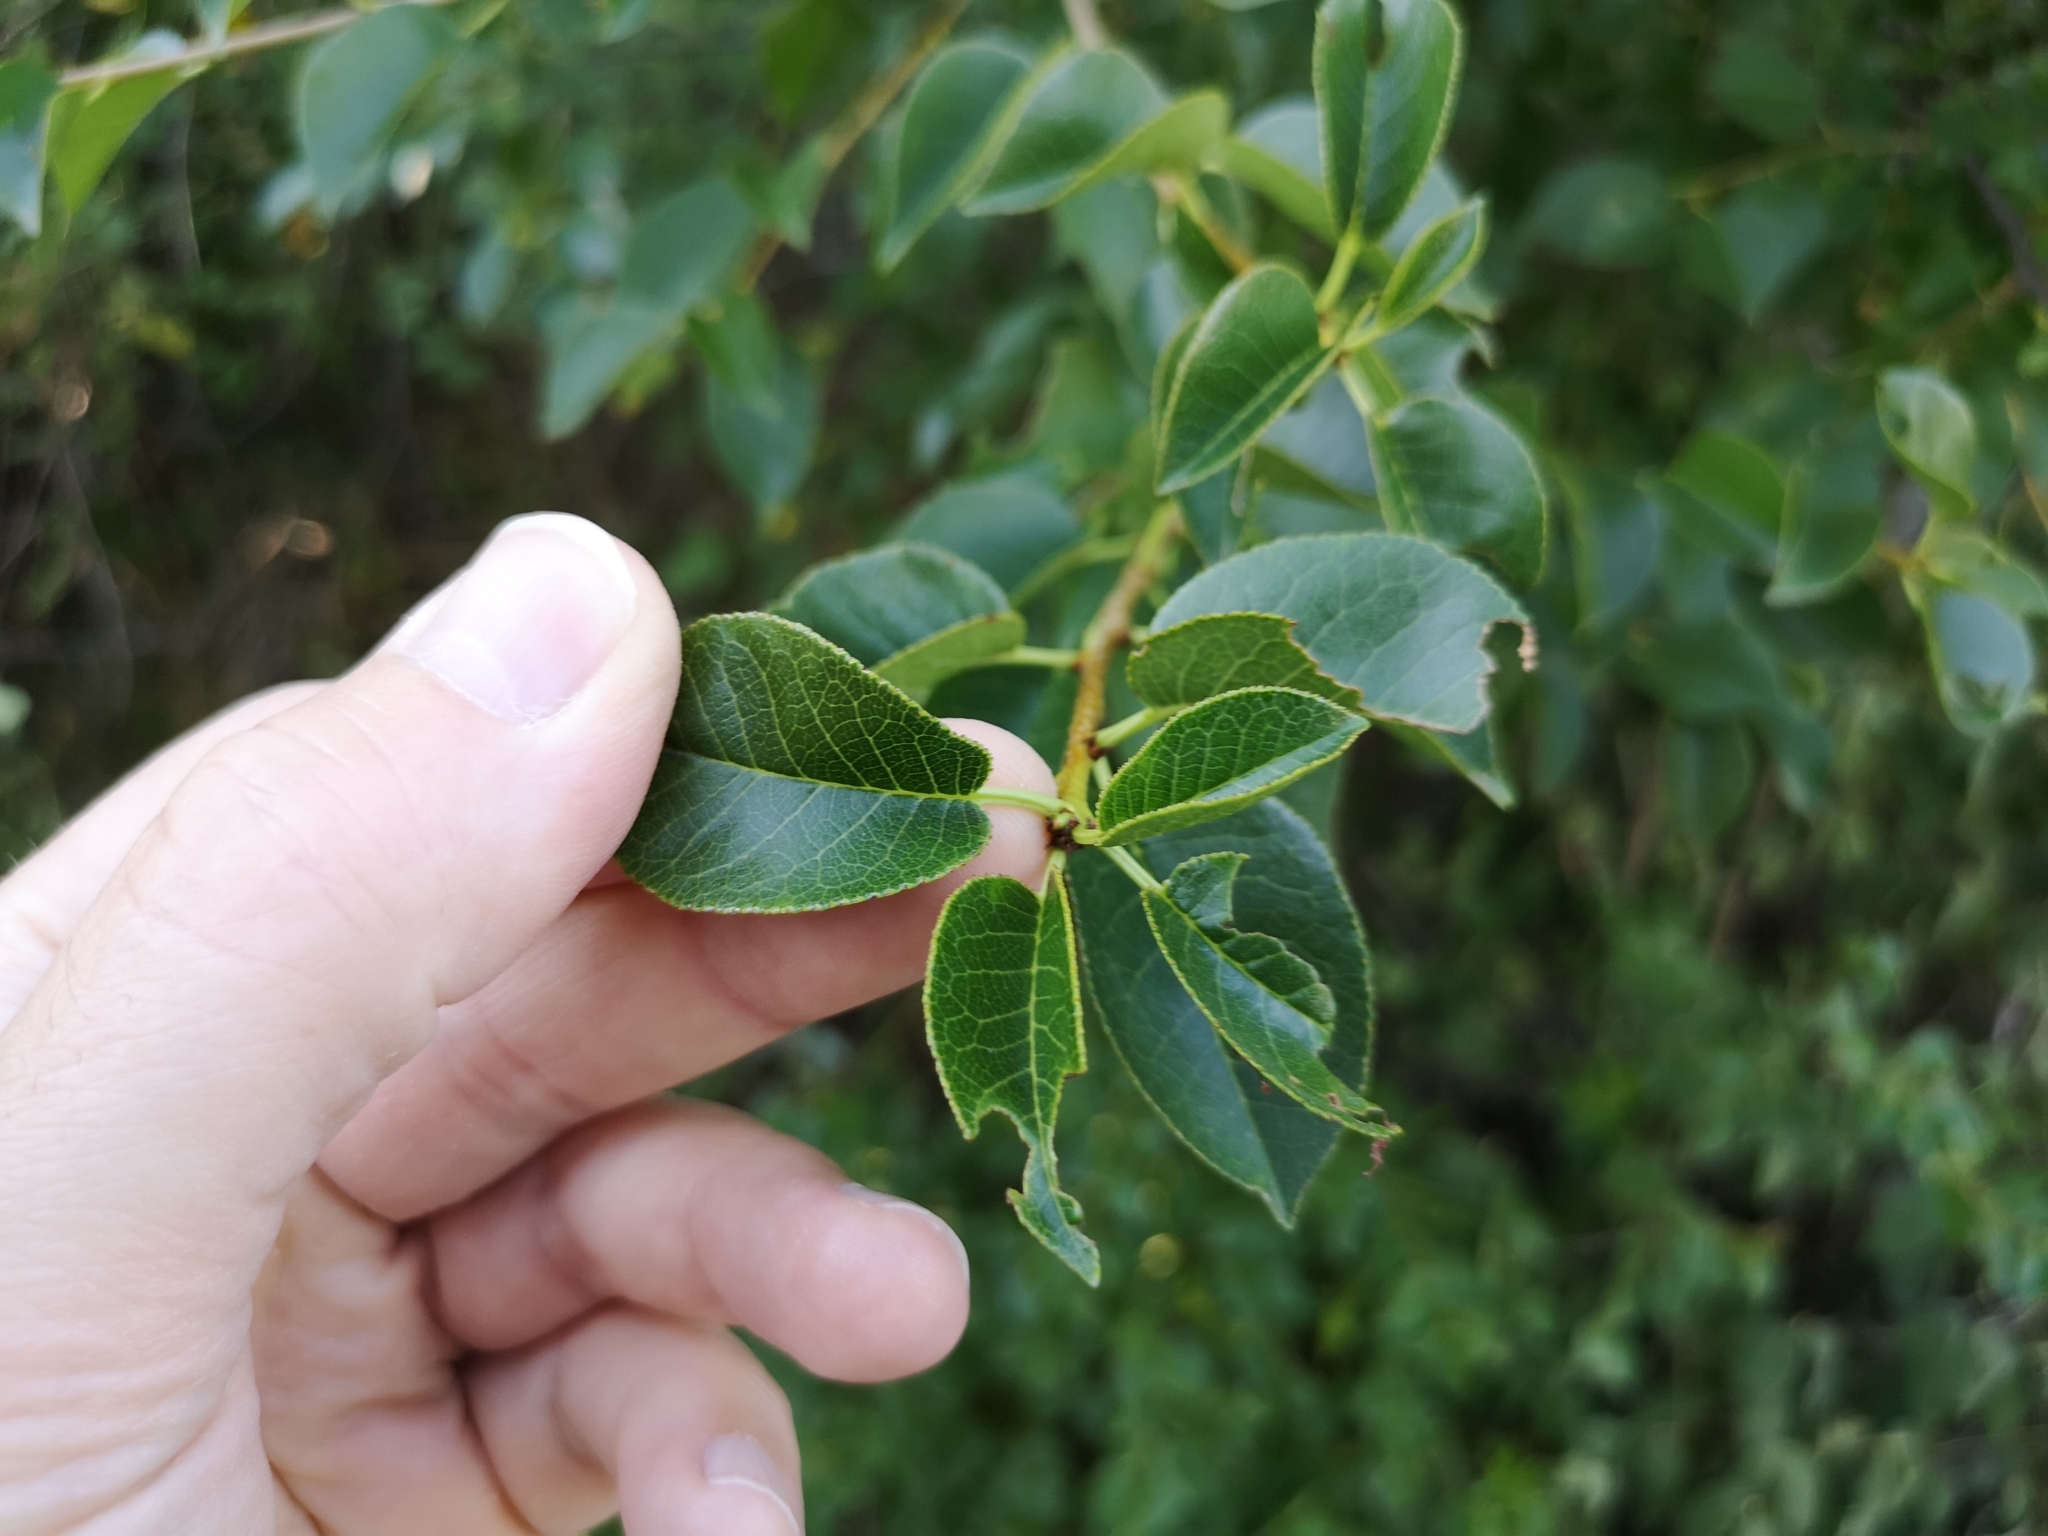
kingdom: Plantae
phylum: Tracheophyta
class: Magnoliopsida
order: Rosales
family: Rosaceae
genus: Prunus
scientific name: Prunus mahaleb
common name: Mahaleb cherry
